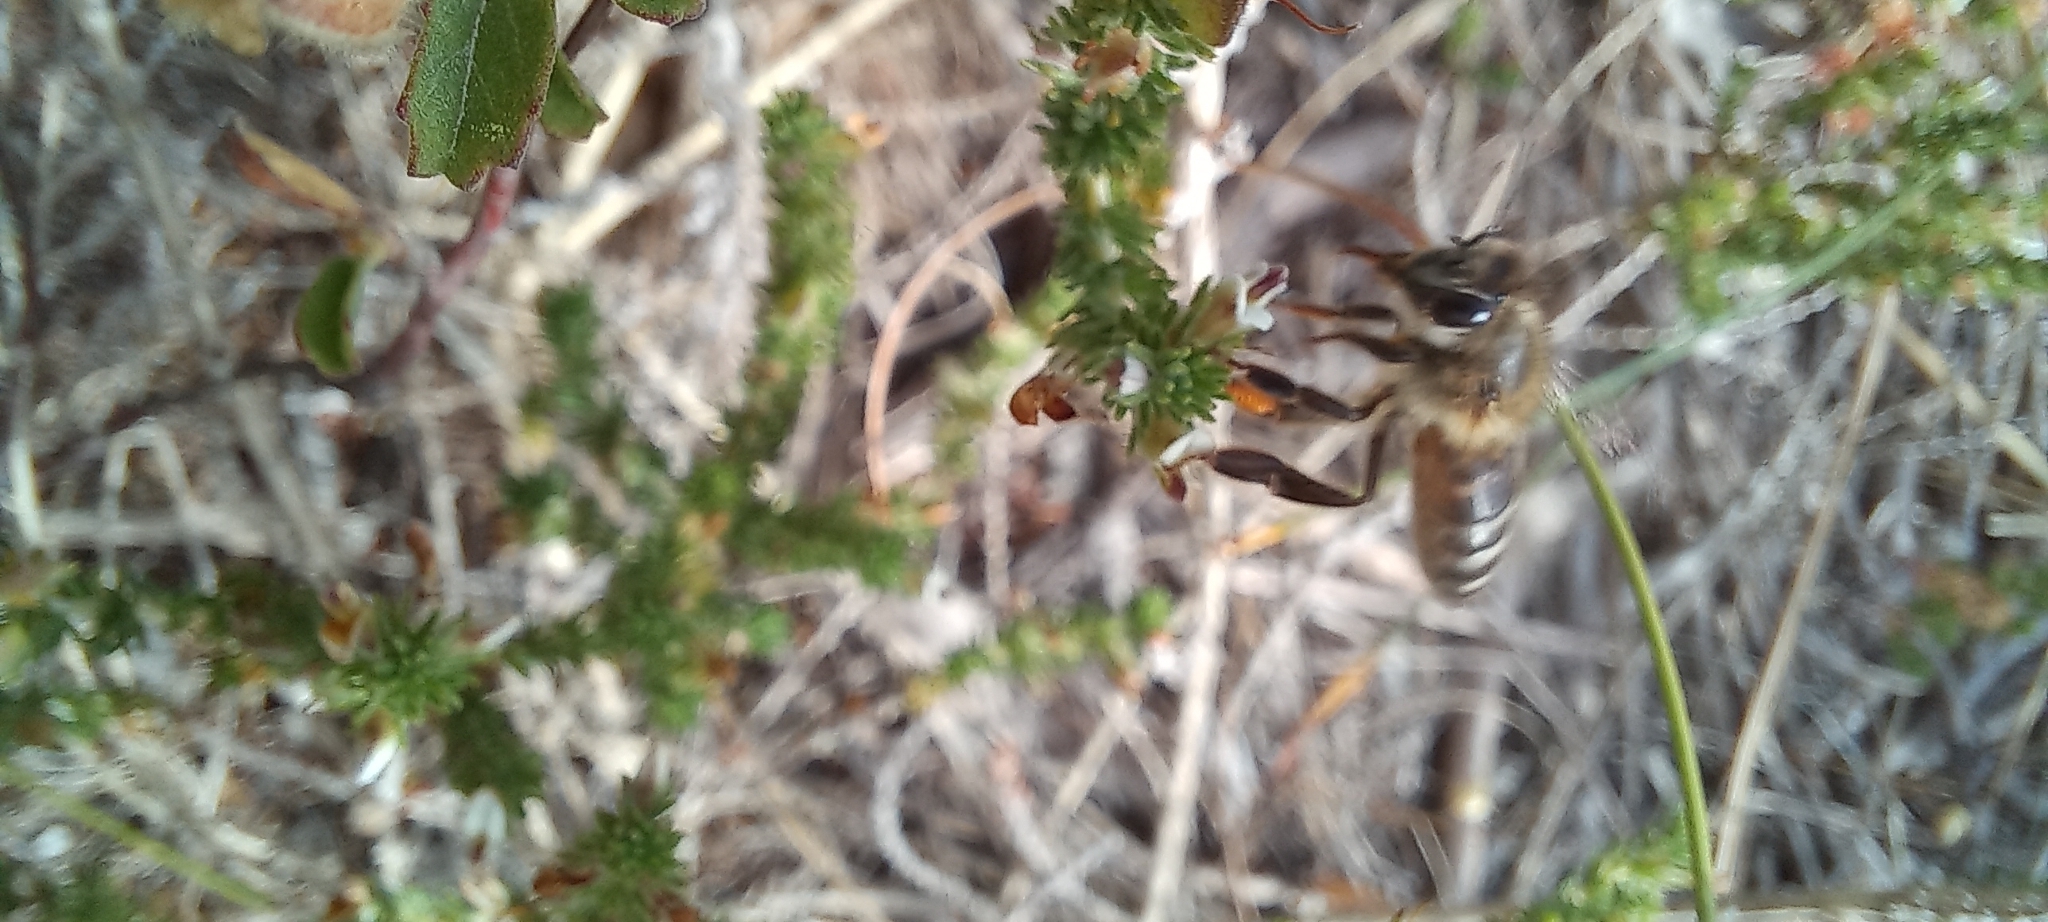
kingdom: Animalia
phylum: Arthropoda
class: Insecta
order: Hymenoptera
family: Apidae
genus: Apis
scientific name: Apis mellifera
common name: Honey bee
